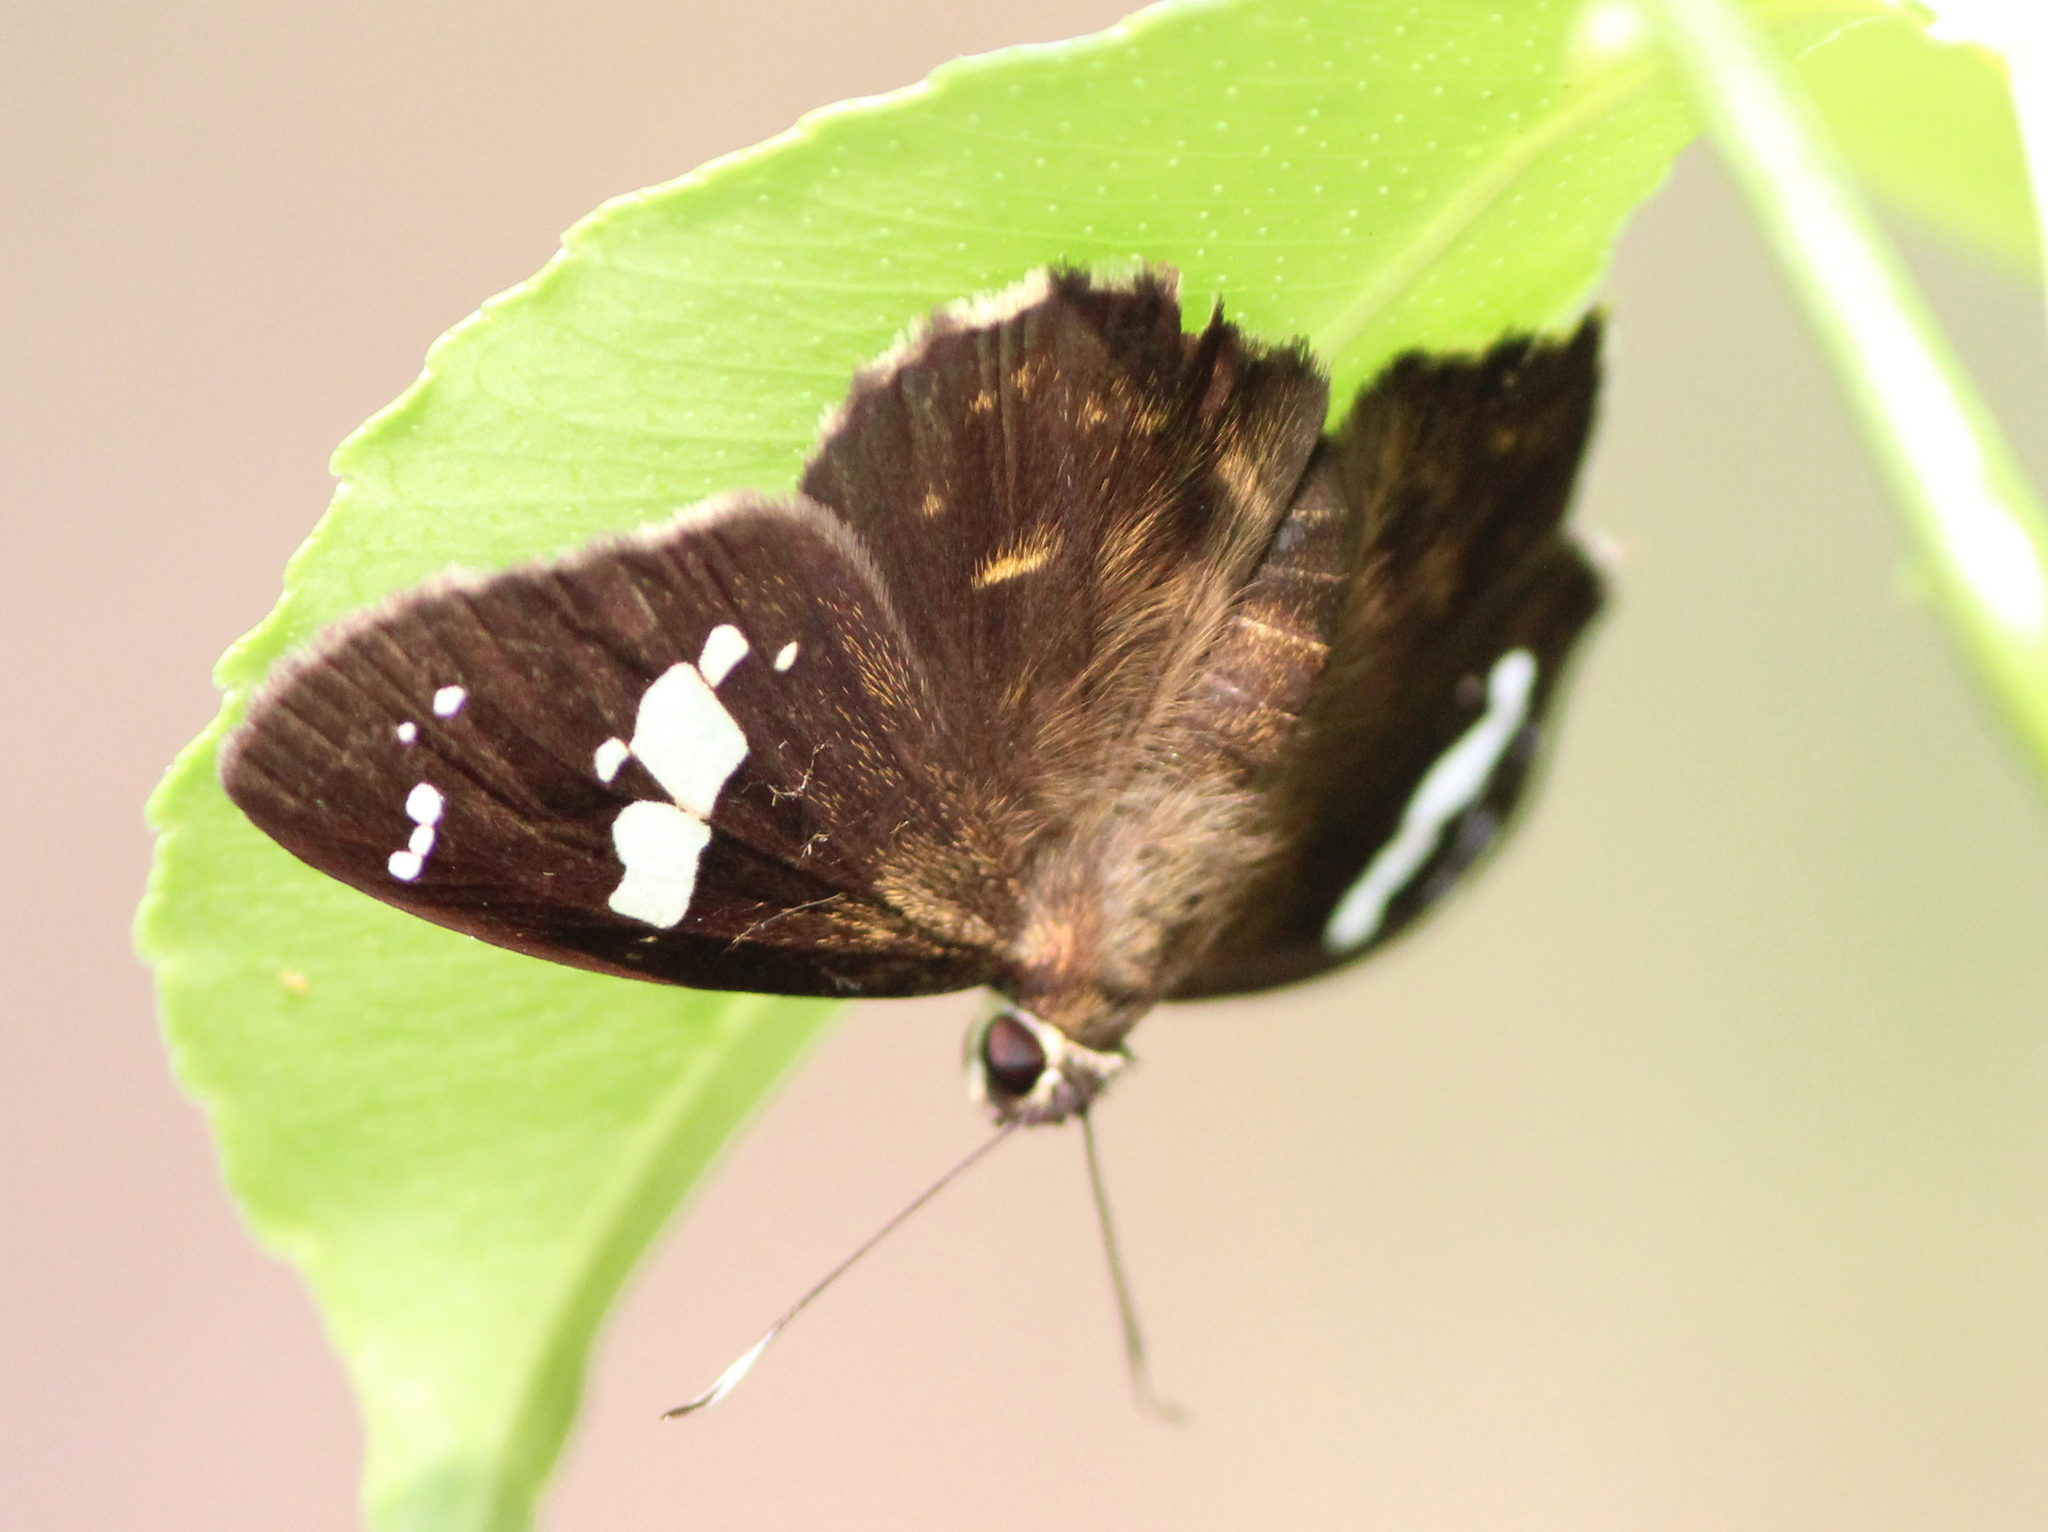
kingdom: Animalia
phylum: Arthropoda
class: Insecta
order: Lepidoptera
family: Hesperiidae
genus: Celaenorrhinus
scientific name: Celaenorrhinus leucocera
